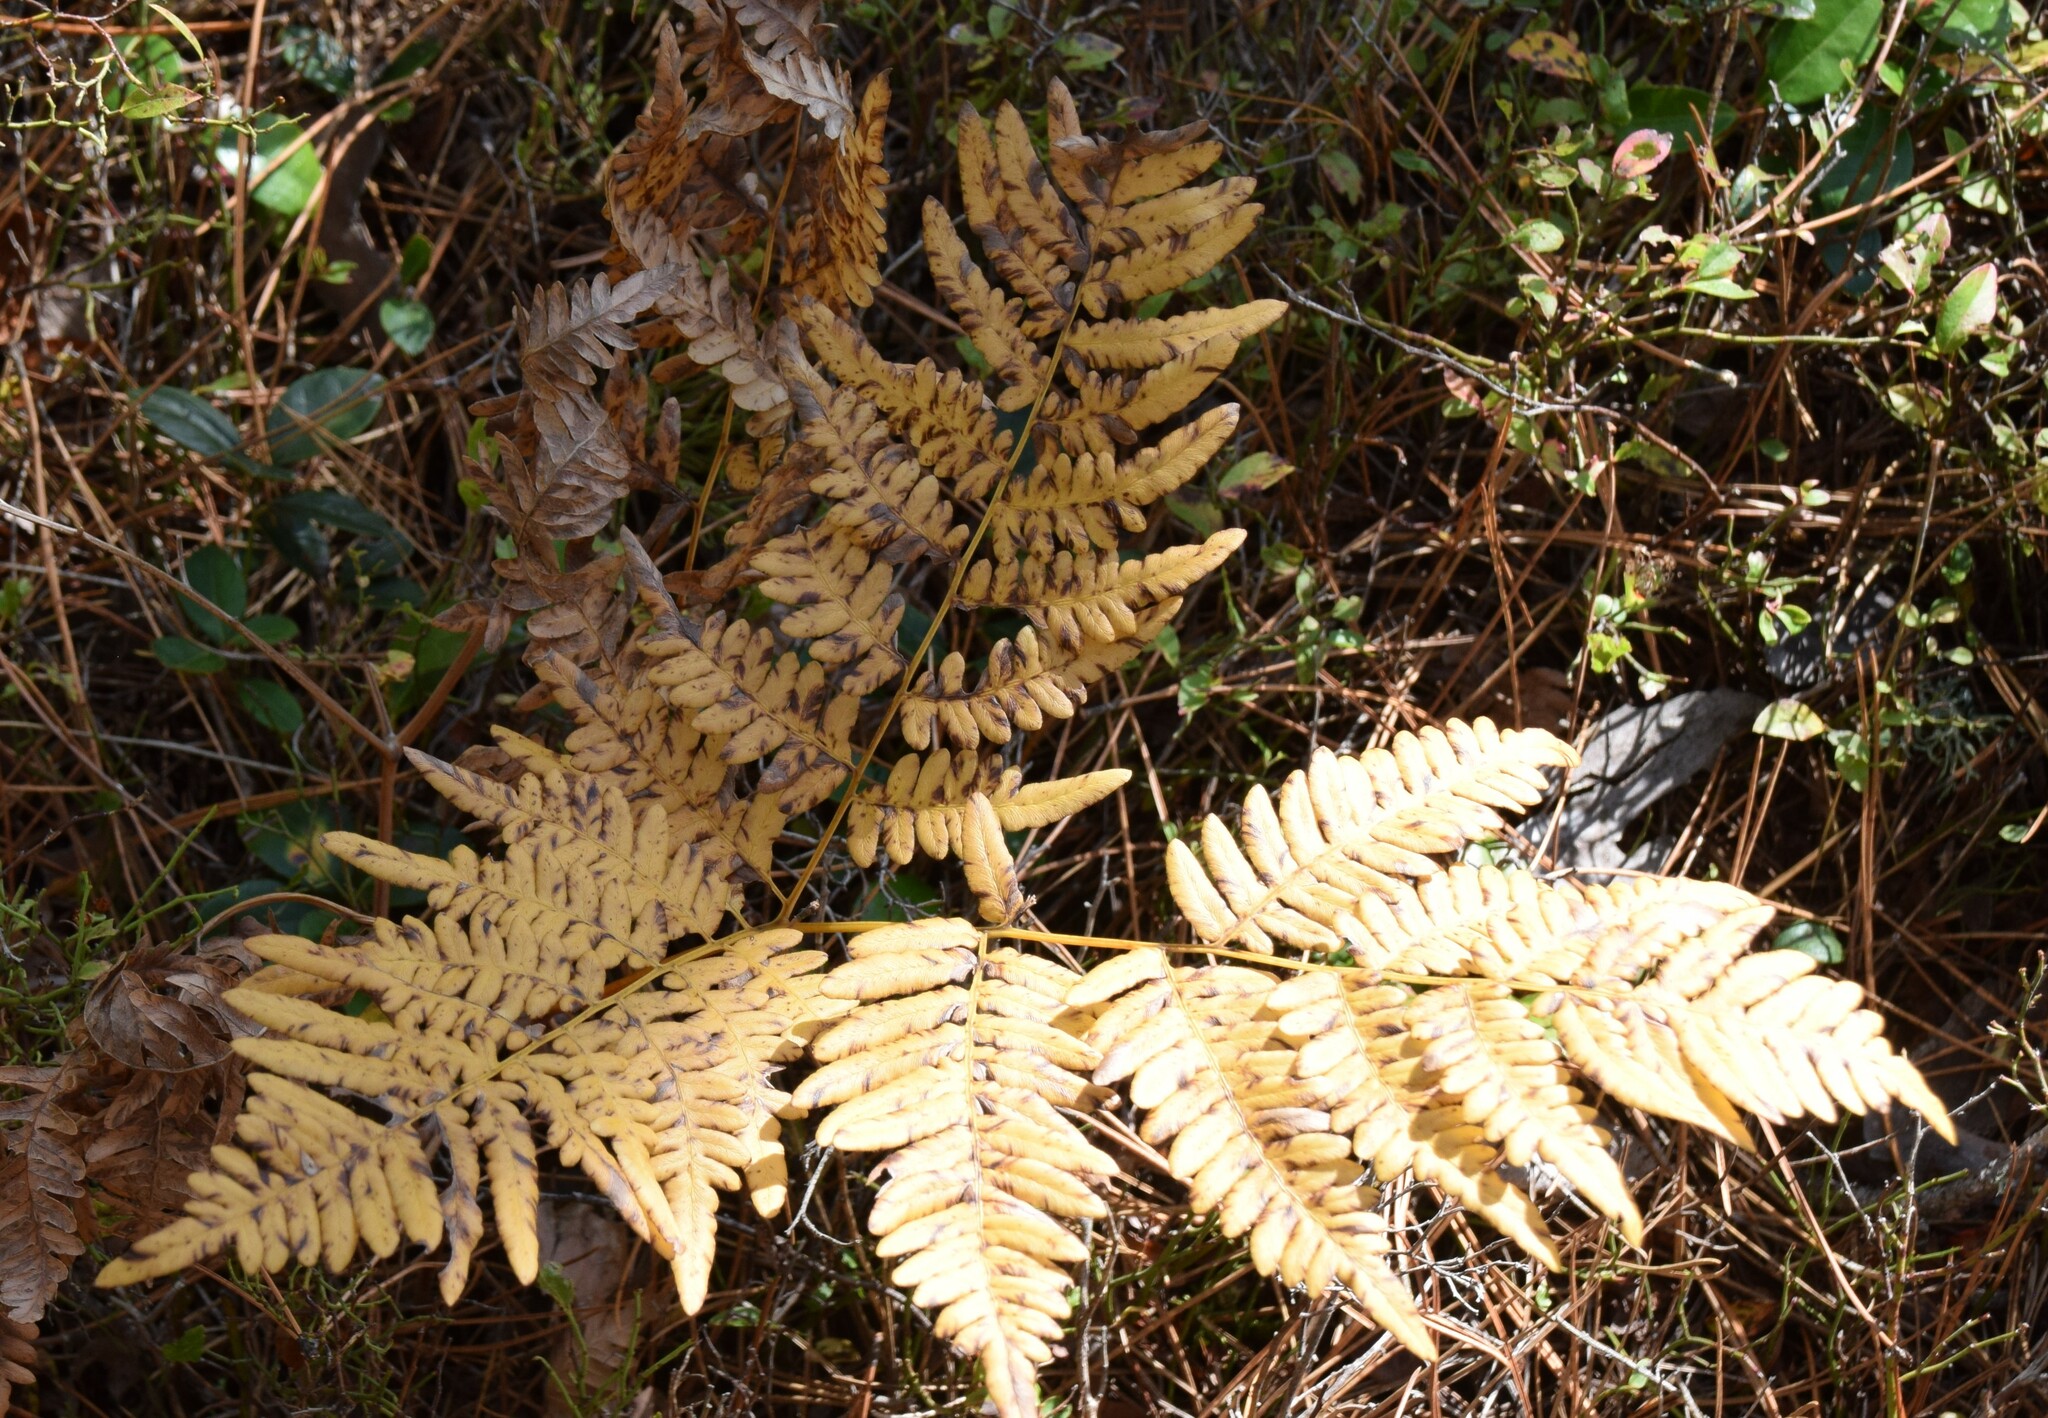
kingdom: Plantae
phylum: Tracheophyta
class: Polypodiopsida
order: Polypodiales
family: Dennstaedtiaceae
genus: Pteridium
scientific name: Pteridium aquilinum
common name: Bracken
